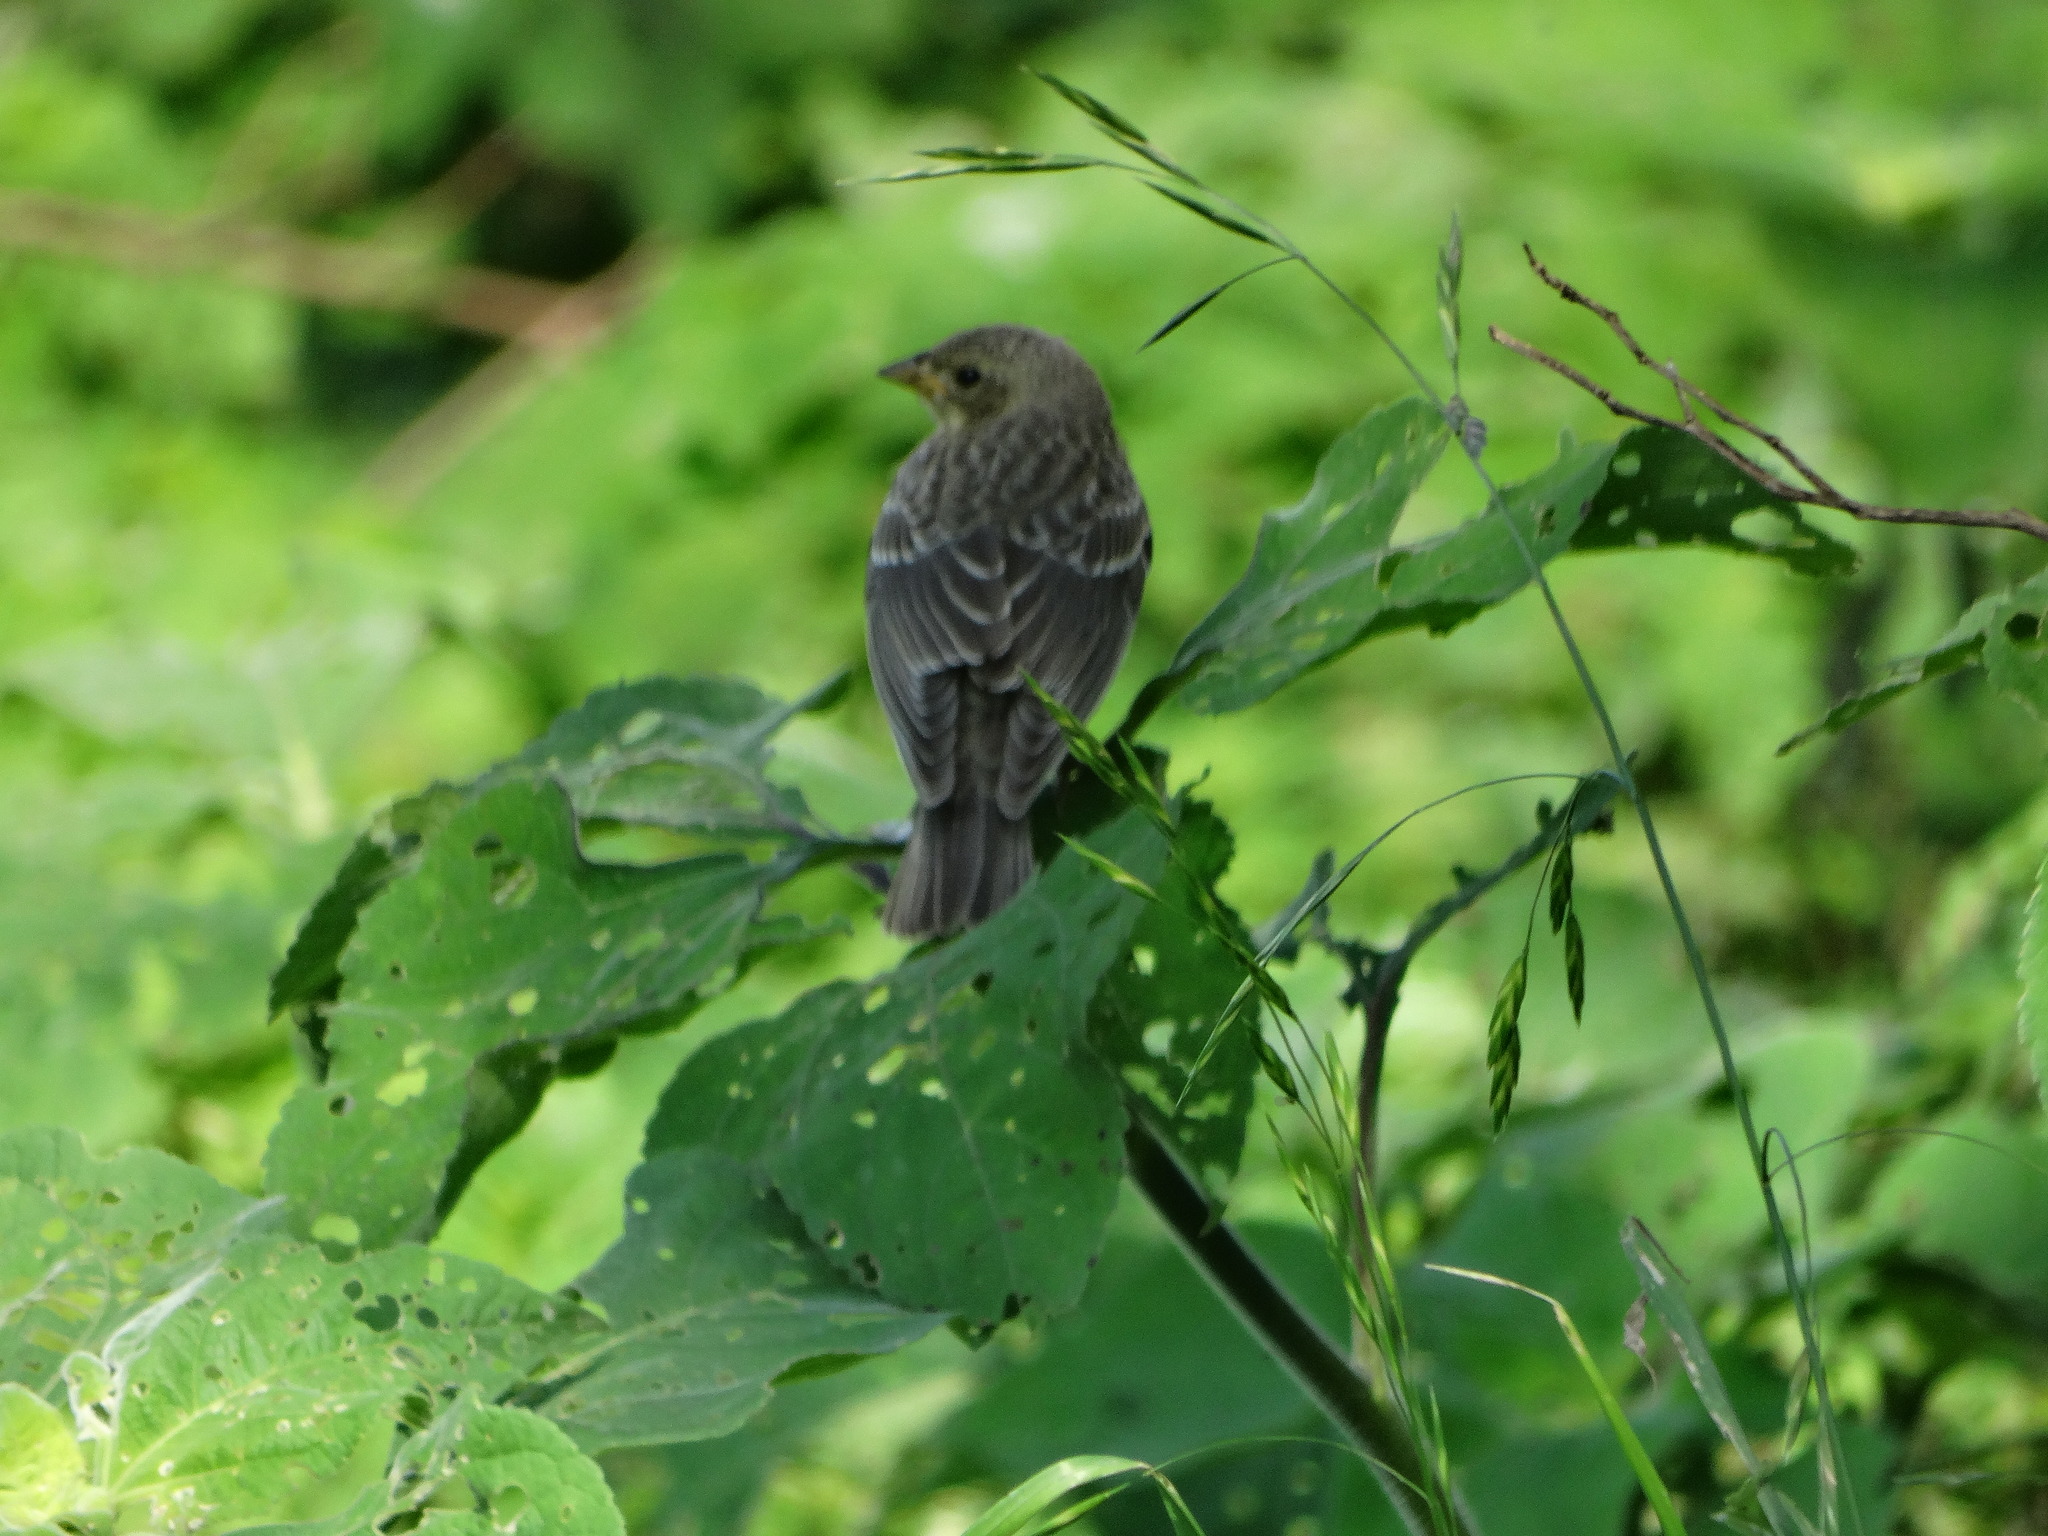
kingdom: Animalia
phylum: Chordata
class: Aves
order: Passeriformes
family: Icteridae
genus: Molothrus
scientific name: Molothrus ater
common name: Brown-headed cowbird
